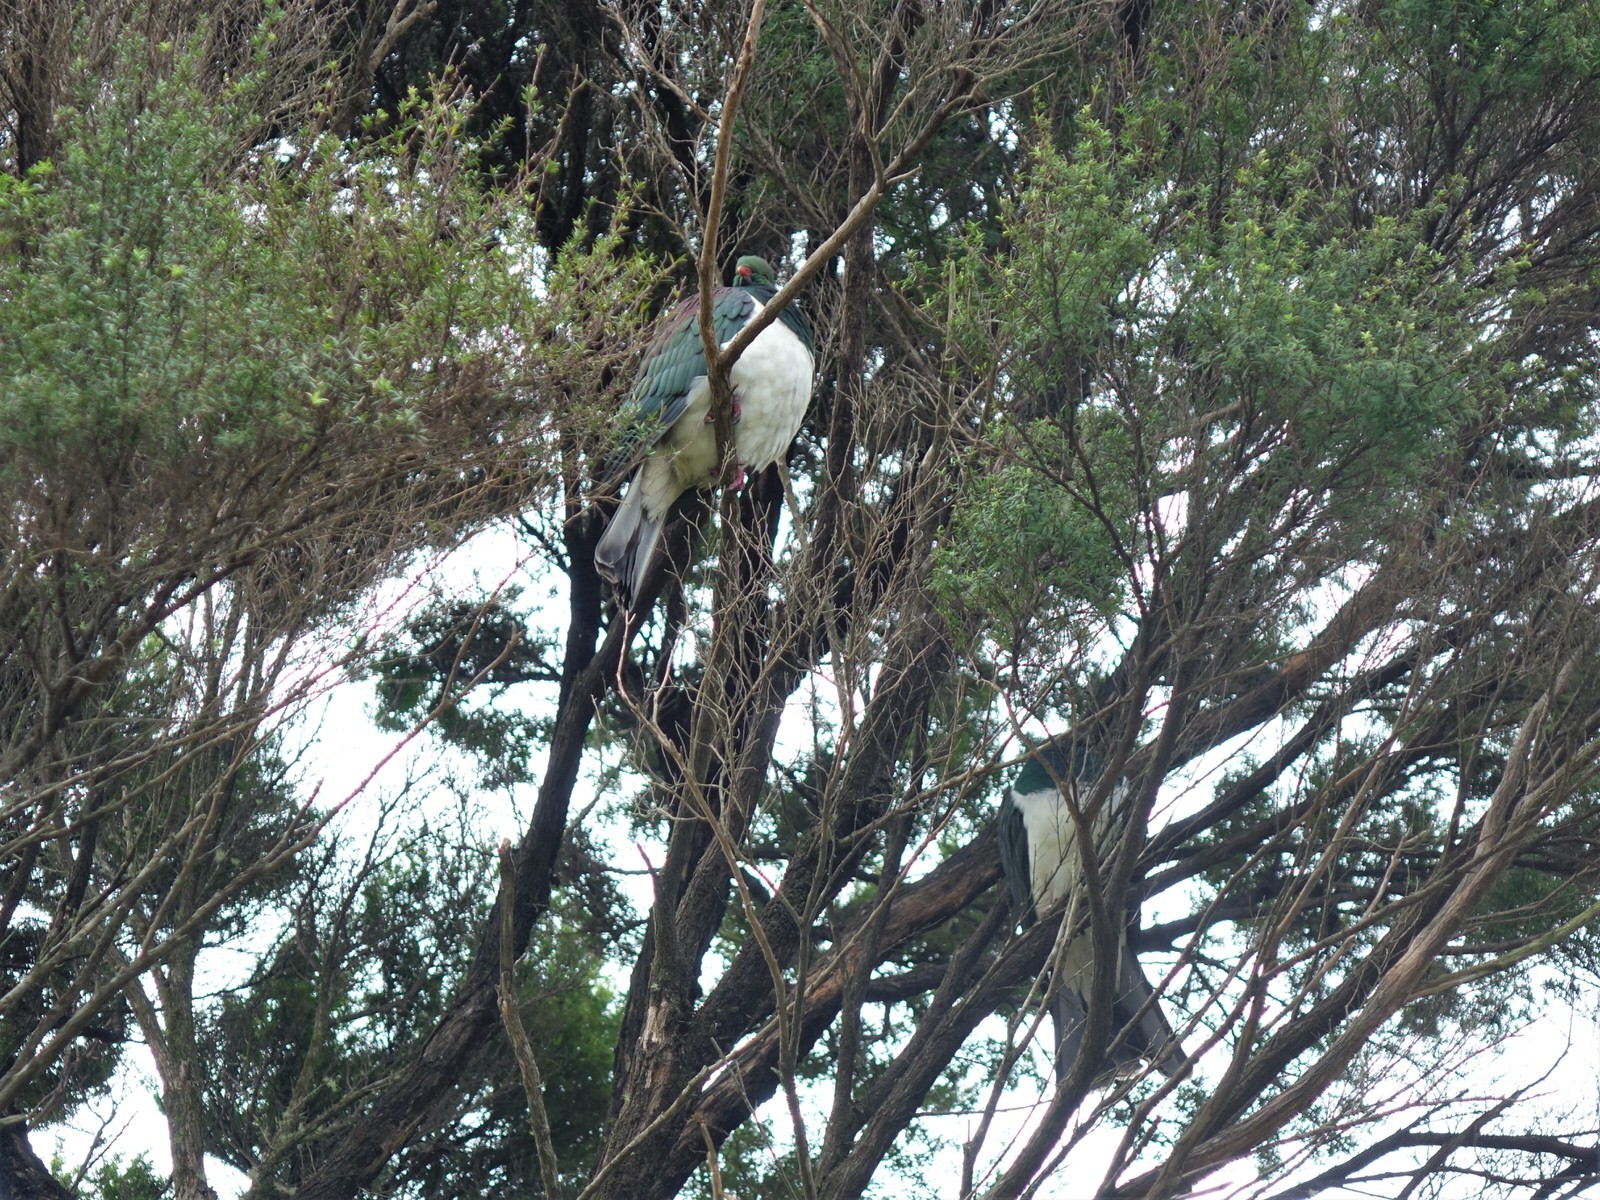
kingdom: Animalia
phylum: Chordata
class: Aves
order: Columbiformes
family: Columbidae
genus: Hemiphaga
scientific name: Hemiphaga novaeseelandiae
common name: New zealand pigeon
